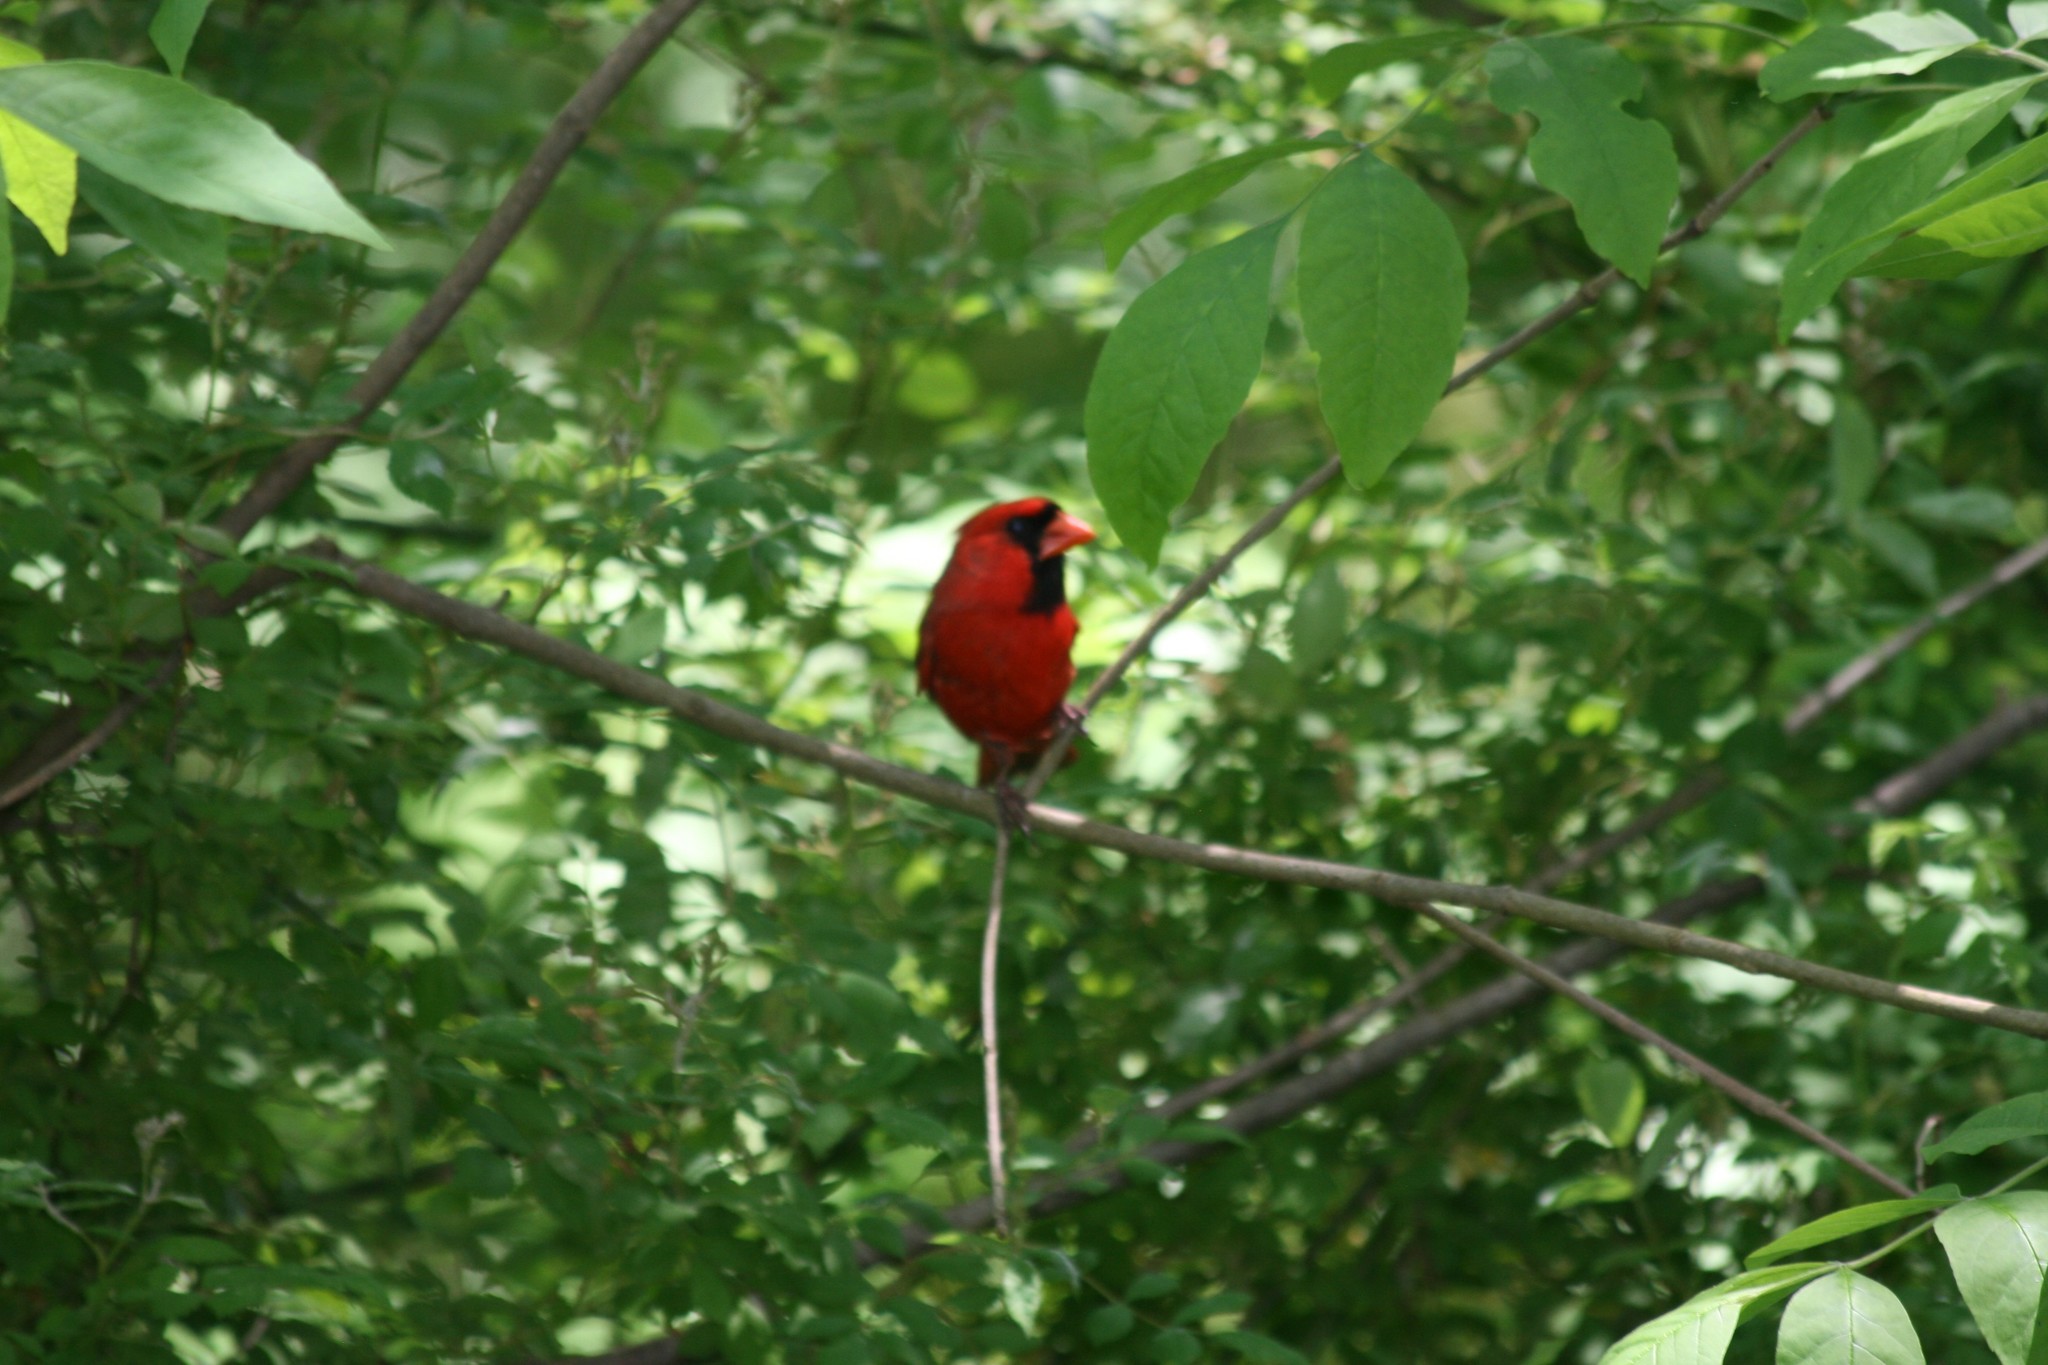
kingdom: Animalia
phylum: Chordata
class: Aves
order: Passeriformes
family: Cardinalidae
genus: Cardinalis
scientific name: Cardinalis cardinalis
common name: Northern cardinal
